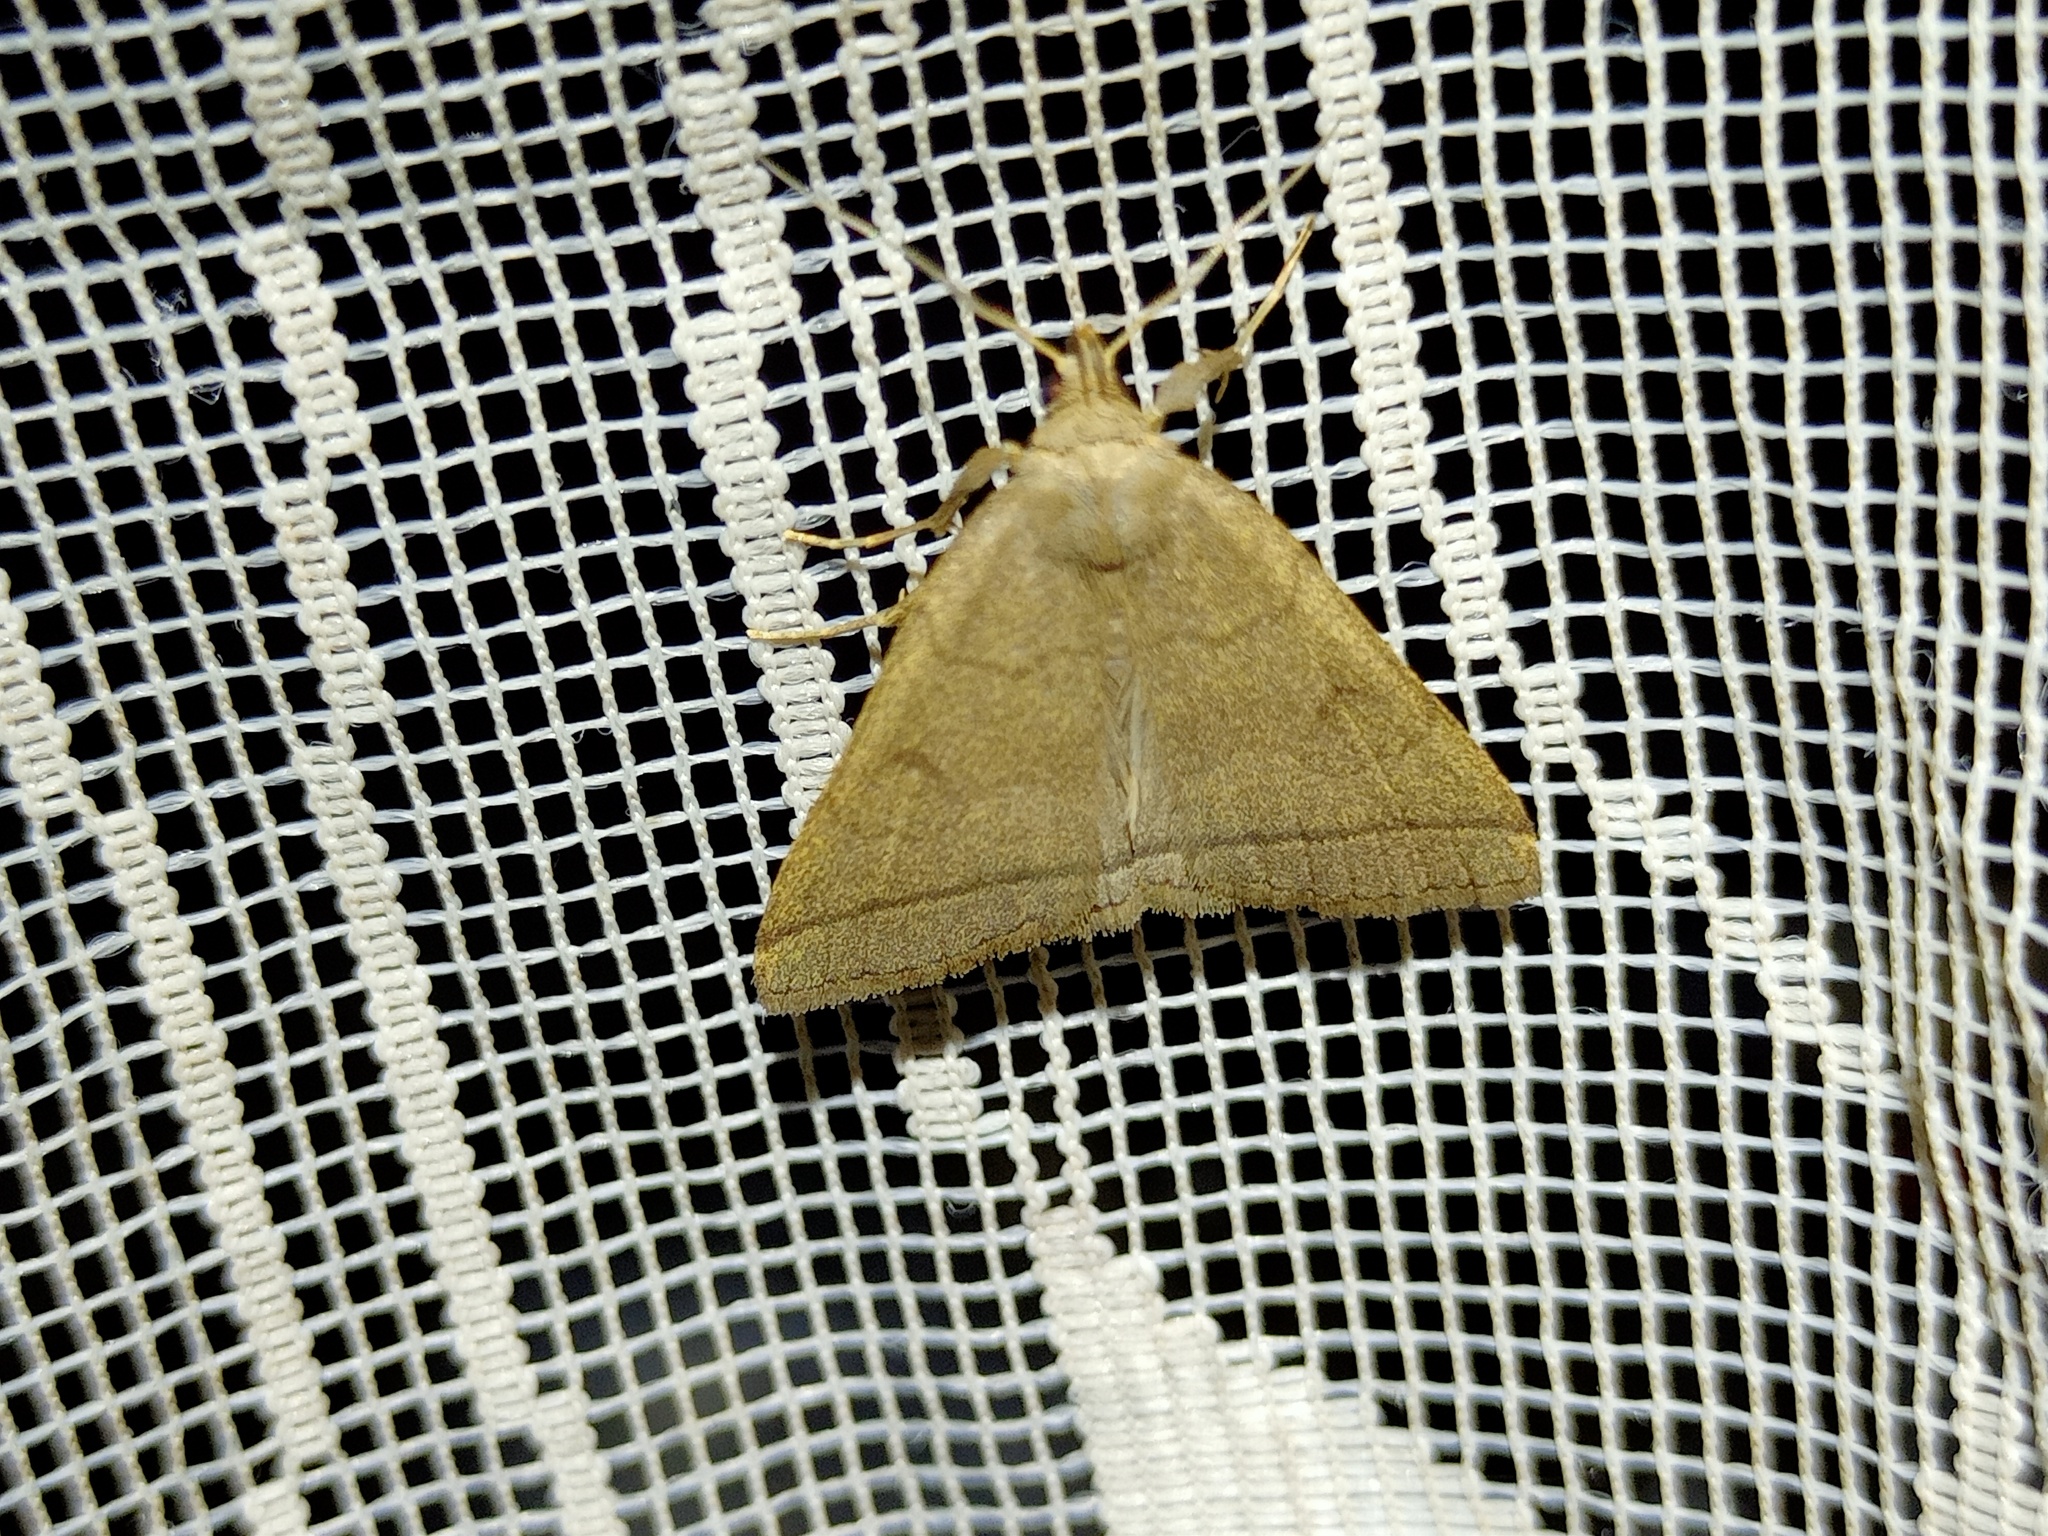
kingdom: Animalia
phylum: Arthropoda
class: Insecta
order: Lepidoptera
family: Erebidae
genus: Herminia
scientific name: Herminia tarsipennalis
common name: Fan-foot
